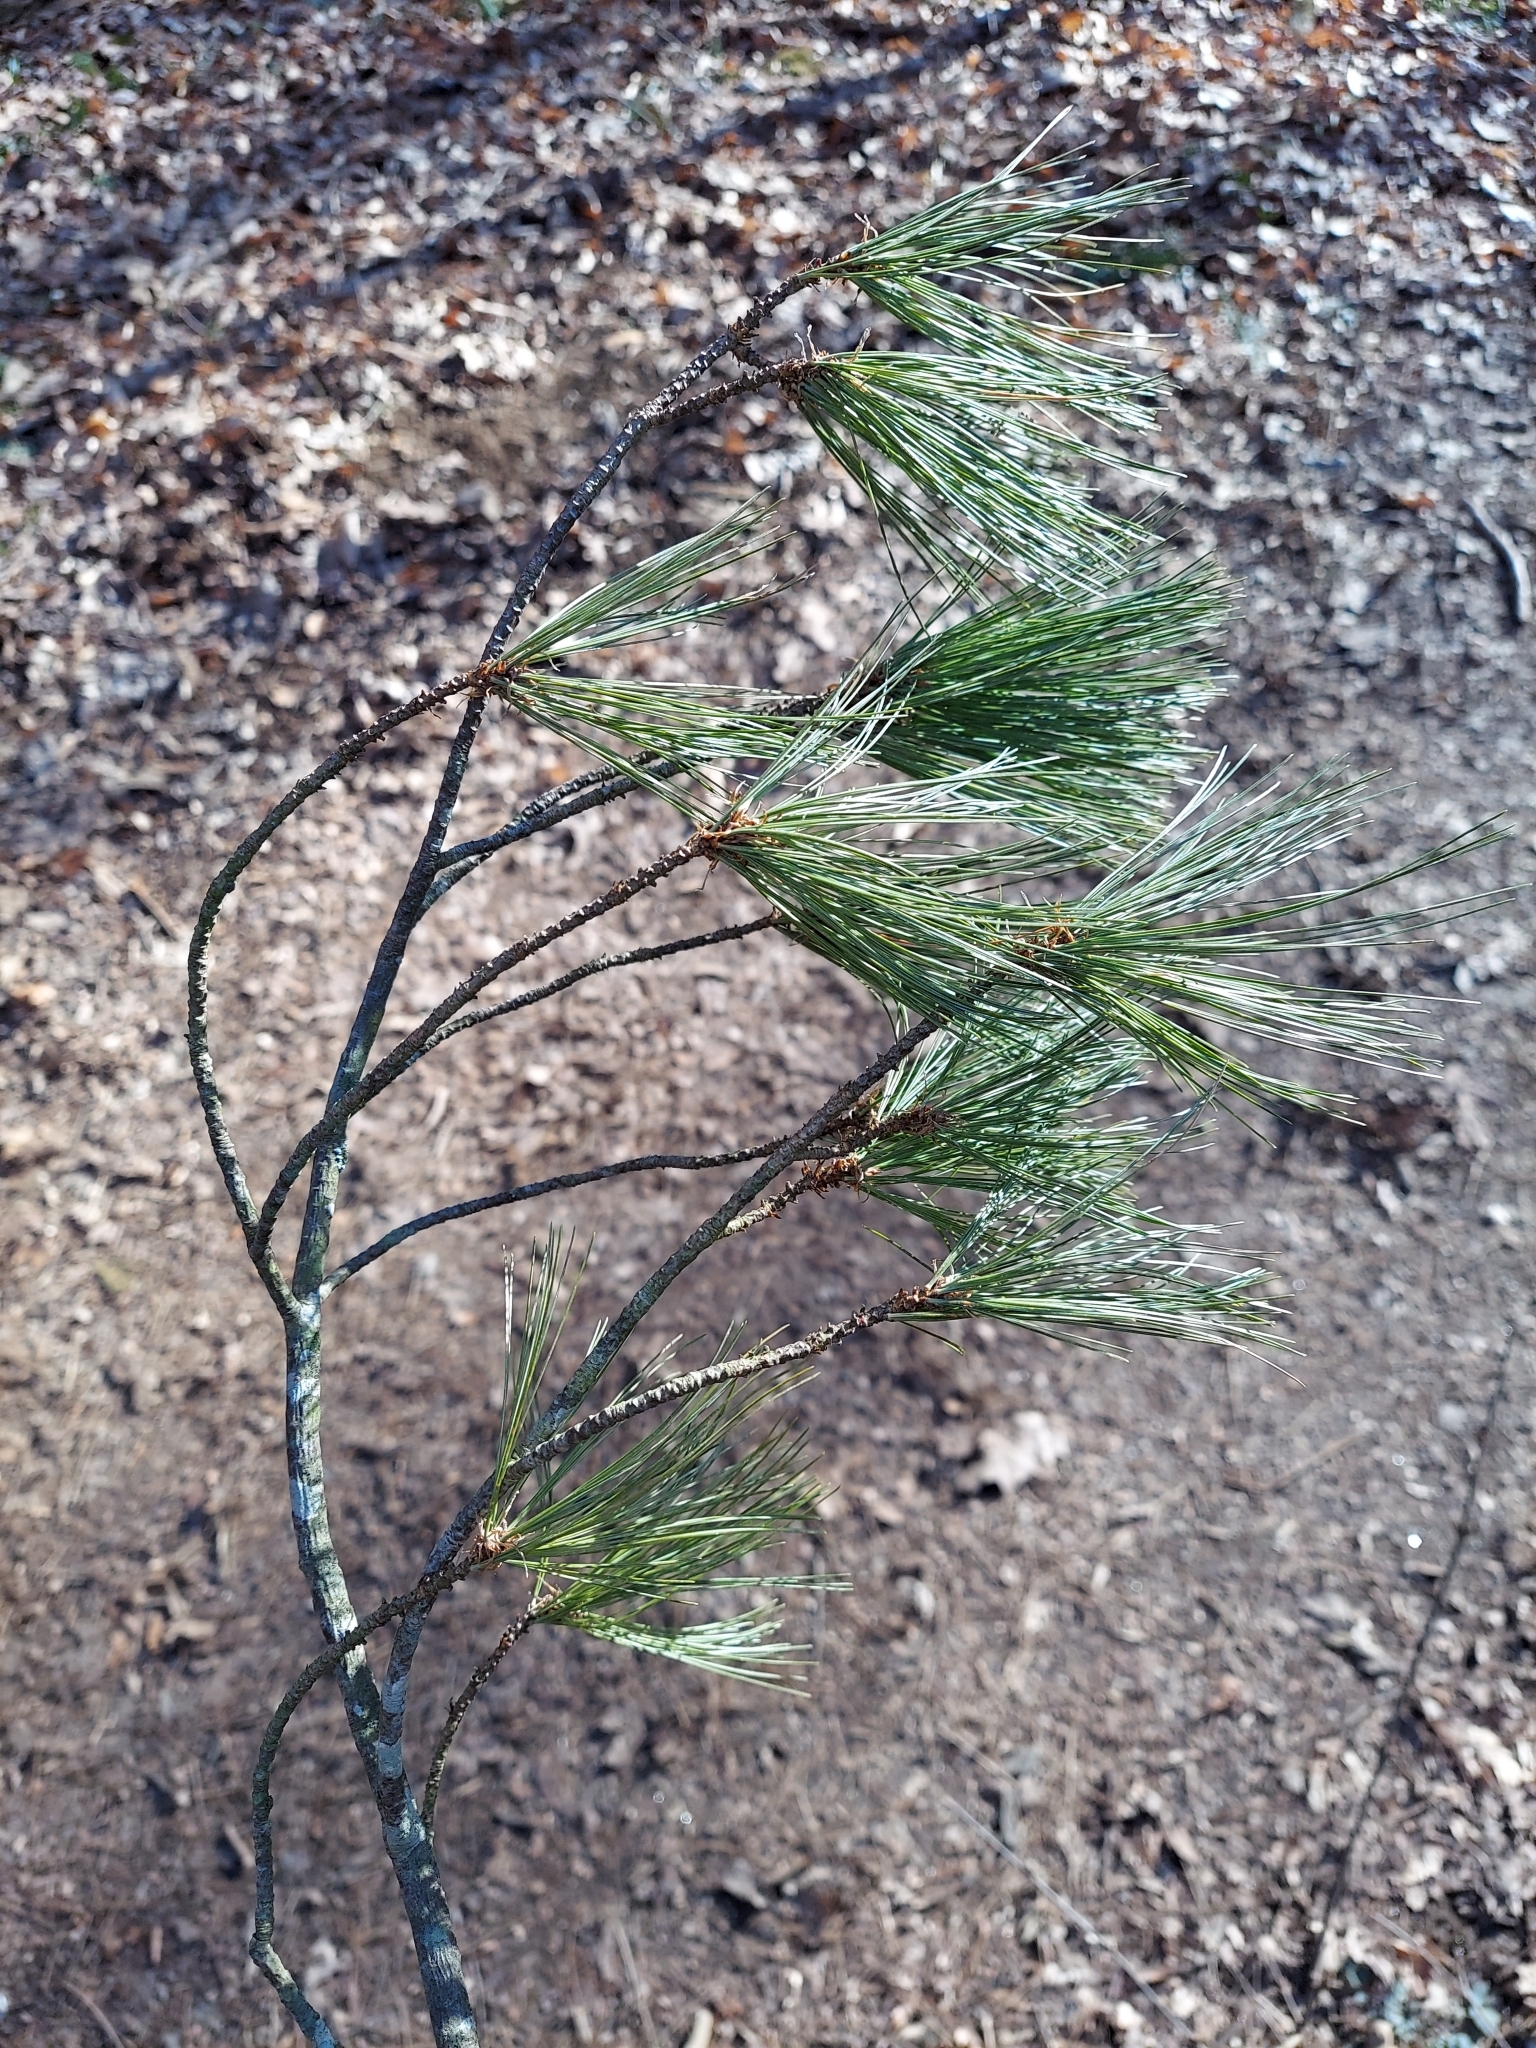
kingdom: Plantae
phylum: Tracheophyta
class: Pinopsida
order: Pinales
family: Pinaceae
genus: Pinus
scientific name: Pinus strobus
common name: Weymouth pine
